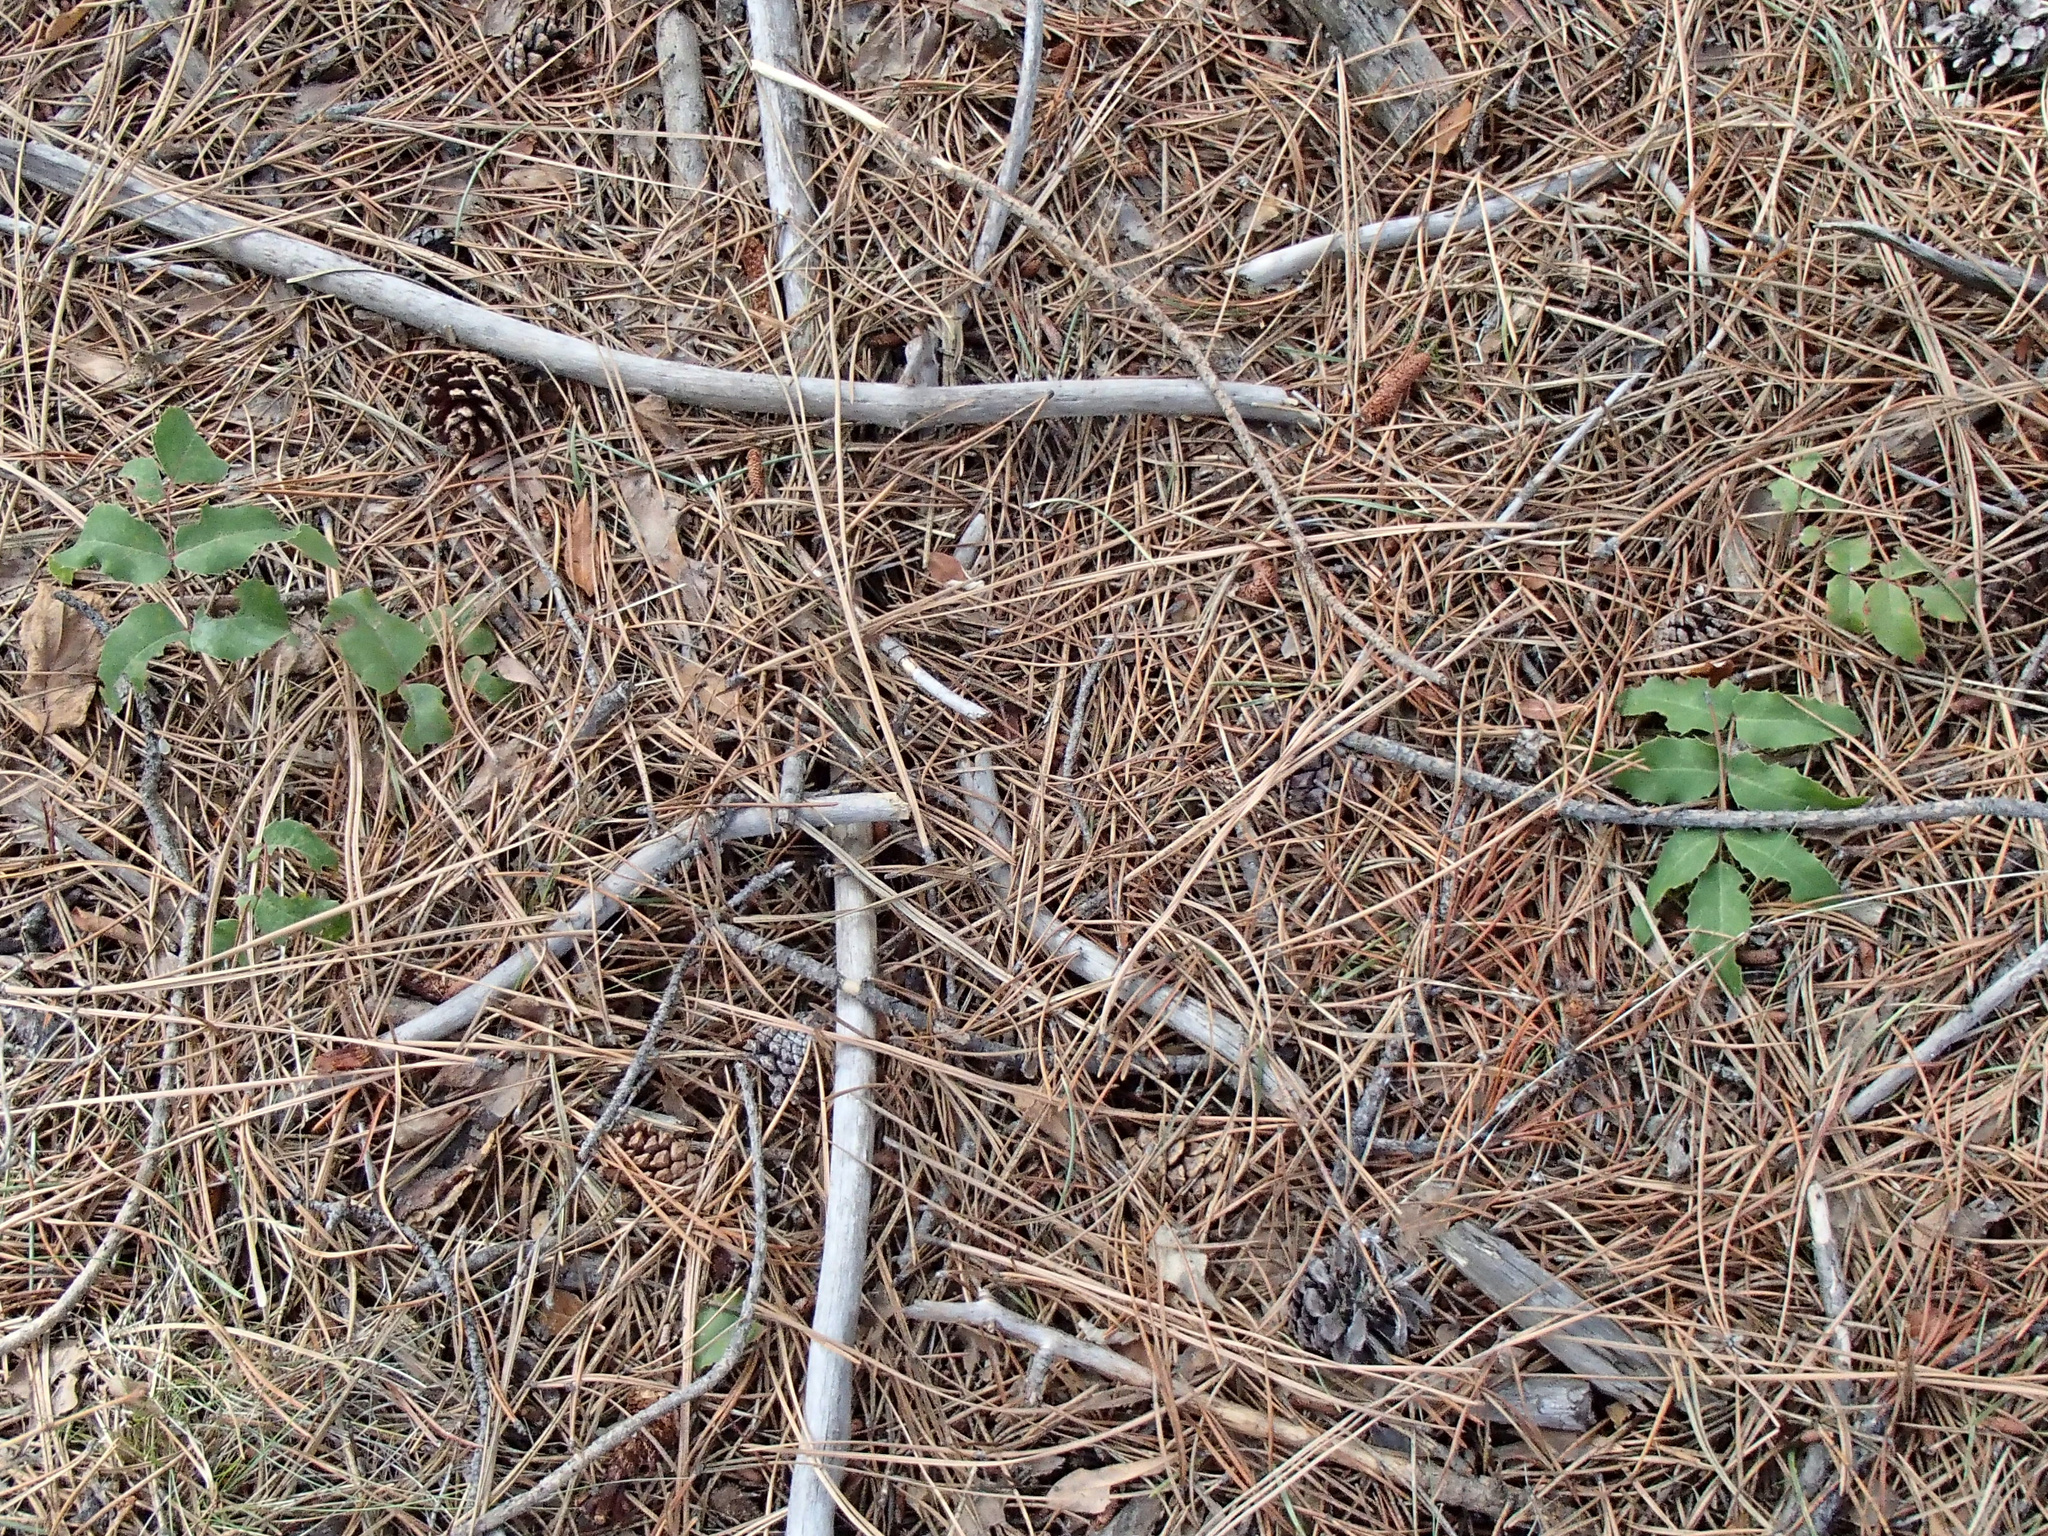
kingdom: Plantae
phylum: Tracheophyta
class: Magnoliopsida
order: Ranunculales
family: Berberidaceae
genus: Mahonia
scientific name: Mahonia repens
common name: Creeping oregon-grape
